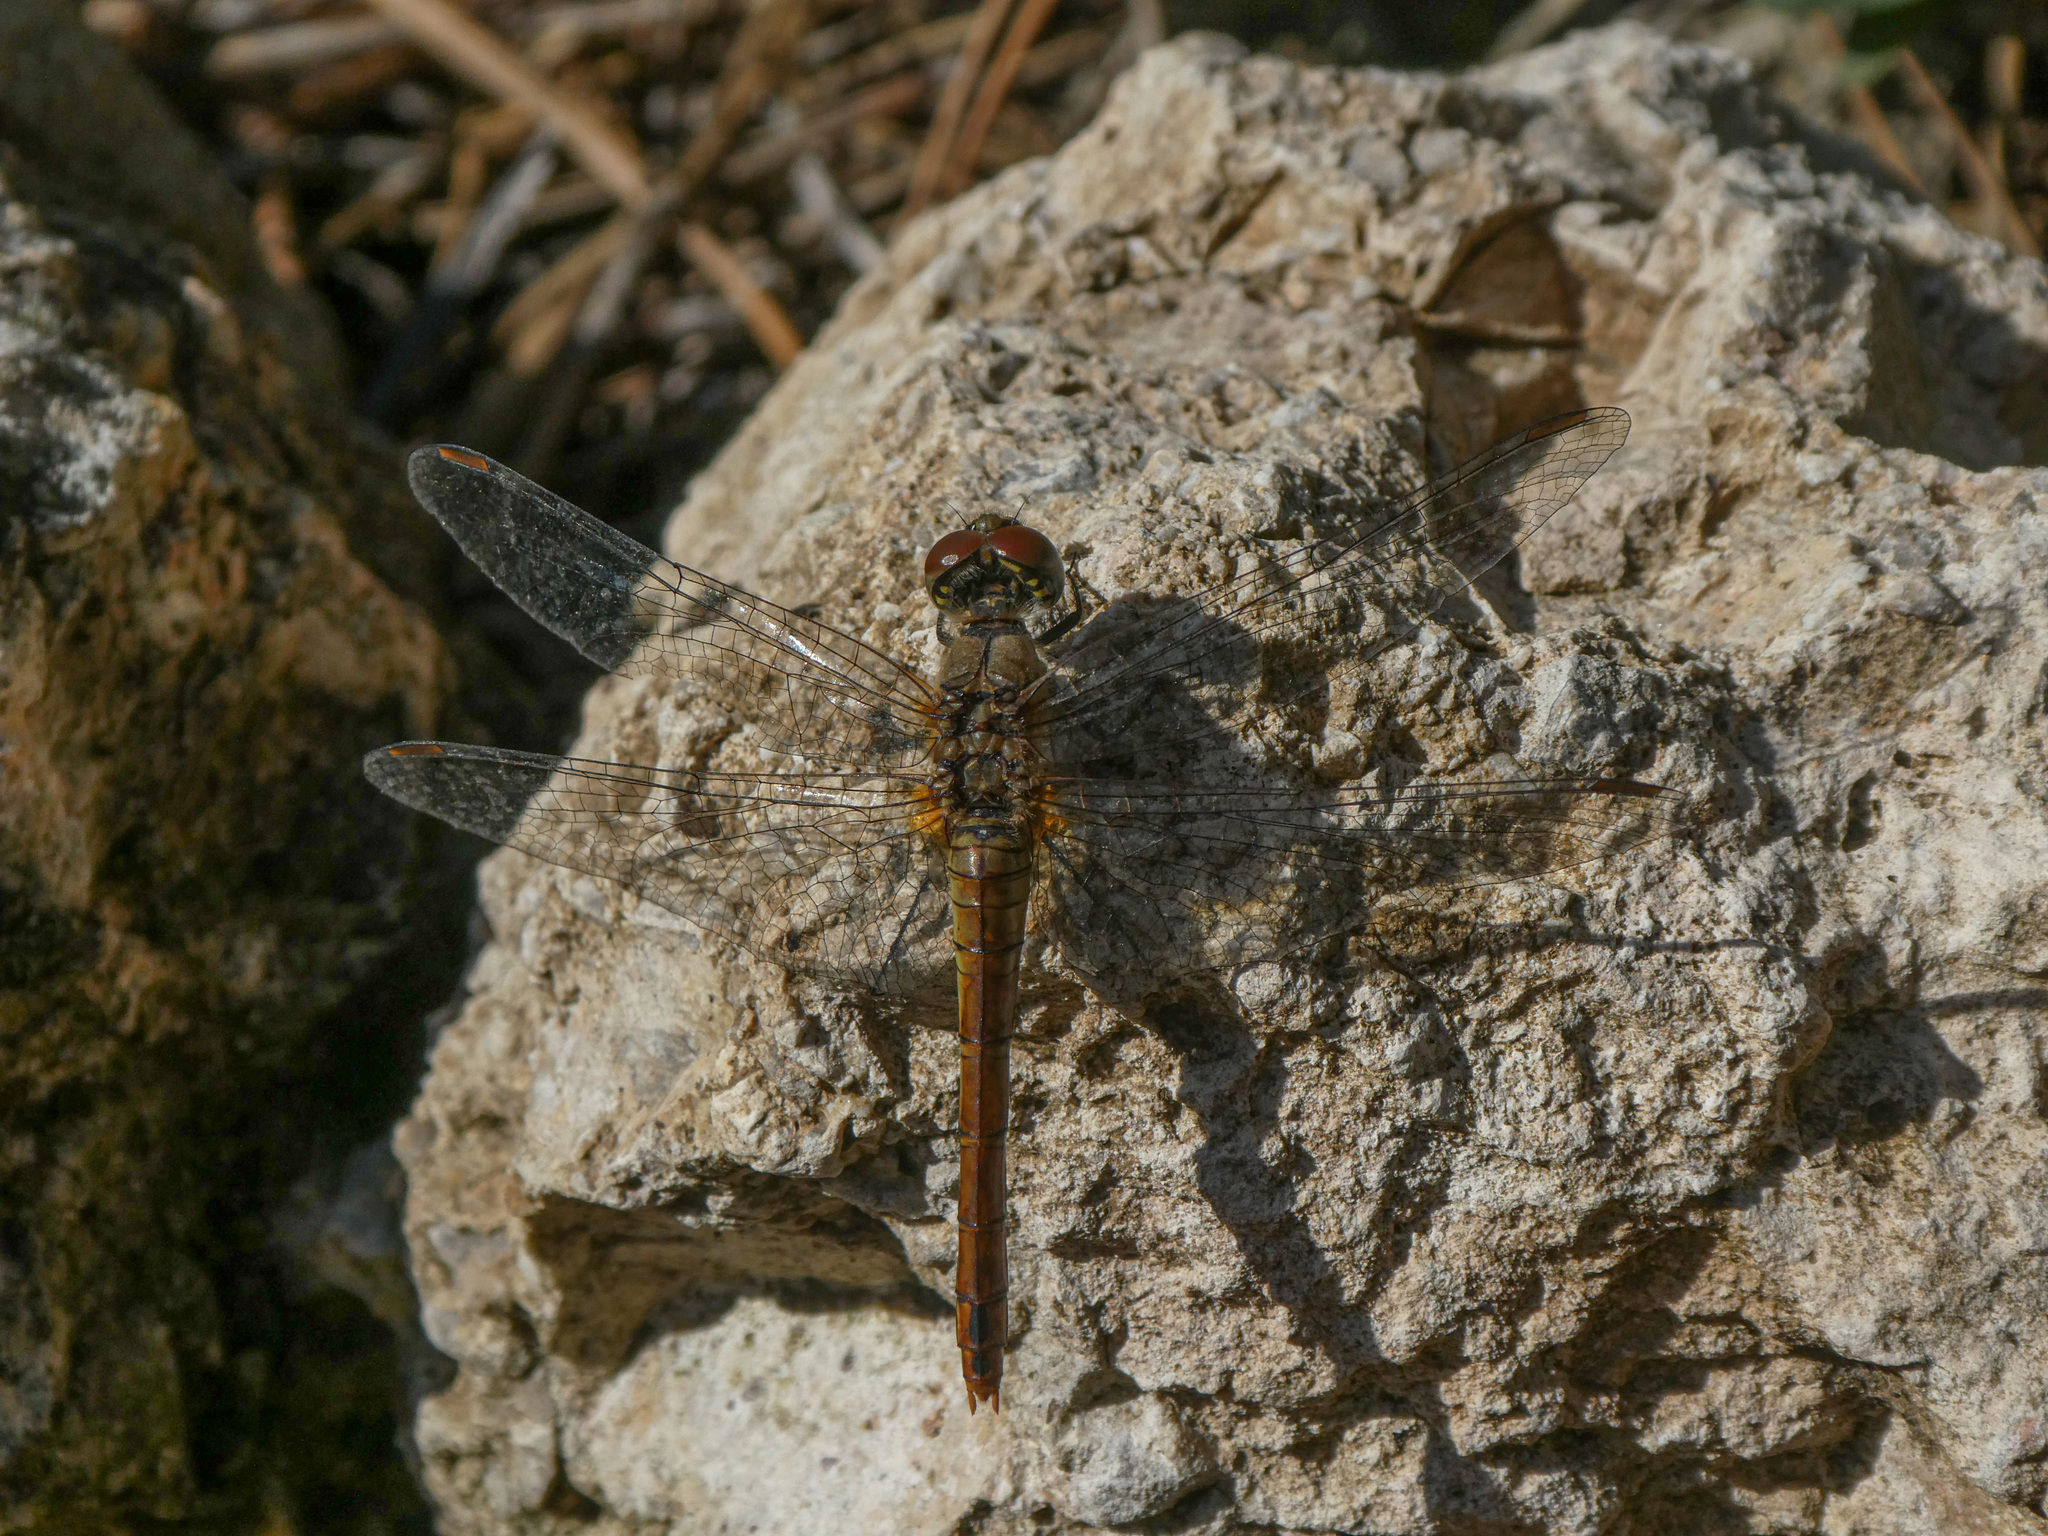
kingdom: Animalia
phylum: Arthropoda
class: Insecta
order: Odonata
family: Libellulidae
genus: Sympetrum
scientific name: Sympetrum sanguineum
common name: Ruddy darter
